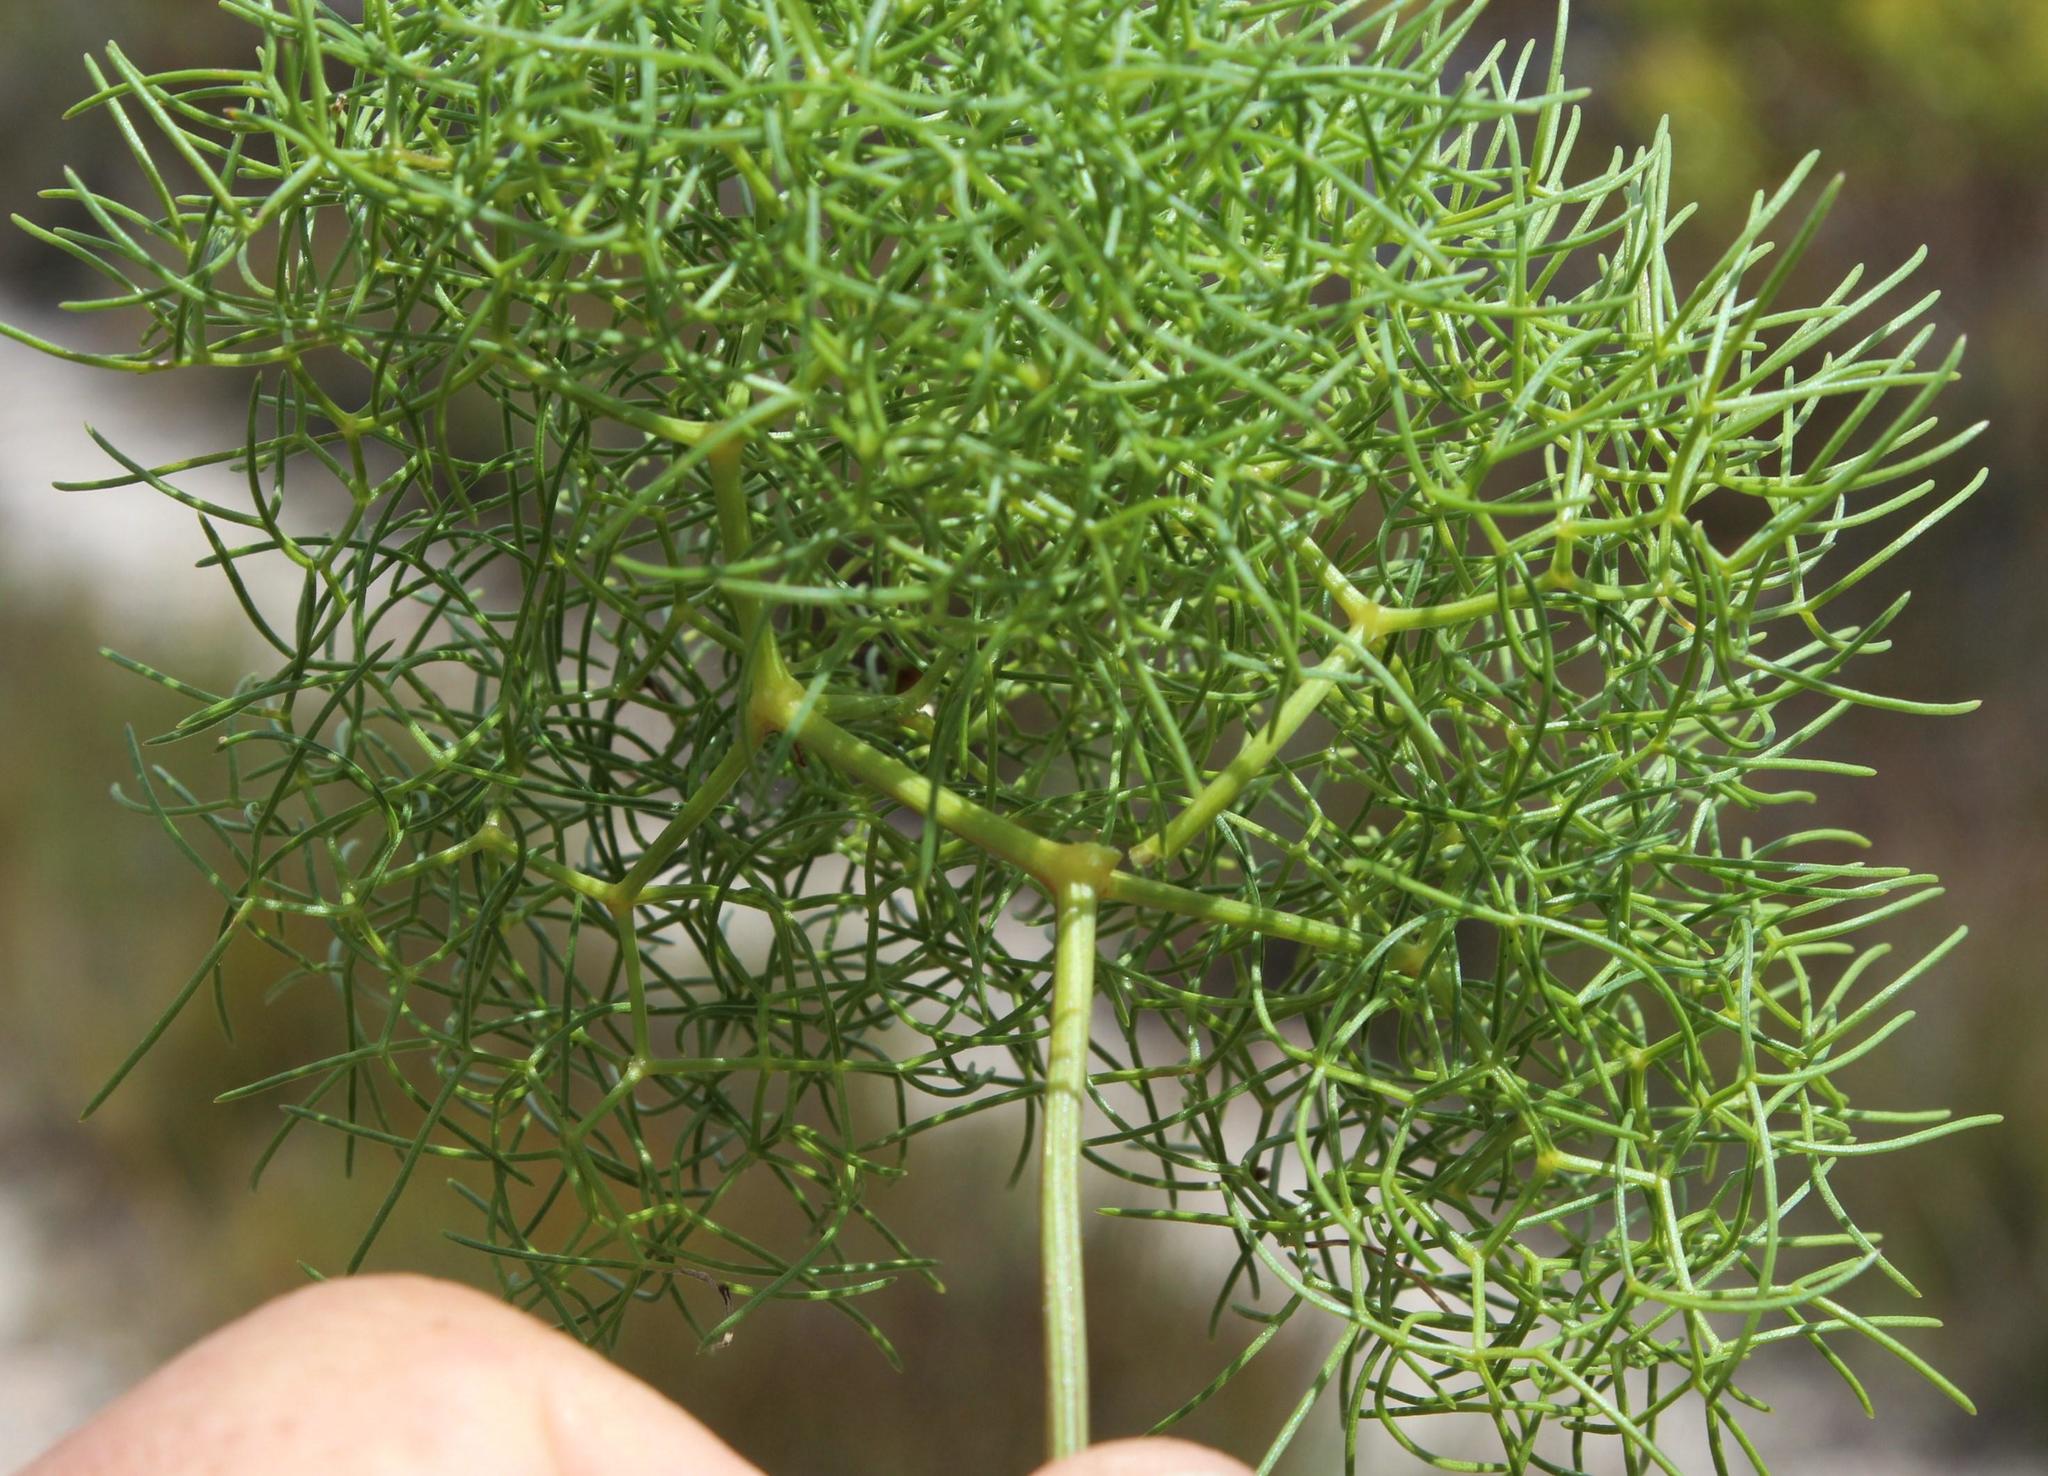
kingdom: Plantae
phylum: Tracheophyta
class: Magnoliopsida
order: Apiales
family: Apiaceae
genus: Nanobubon
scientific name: Nanobubon capillaceum
